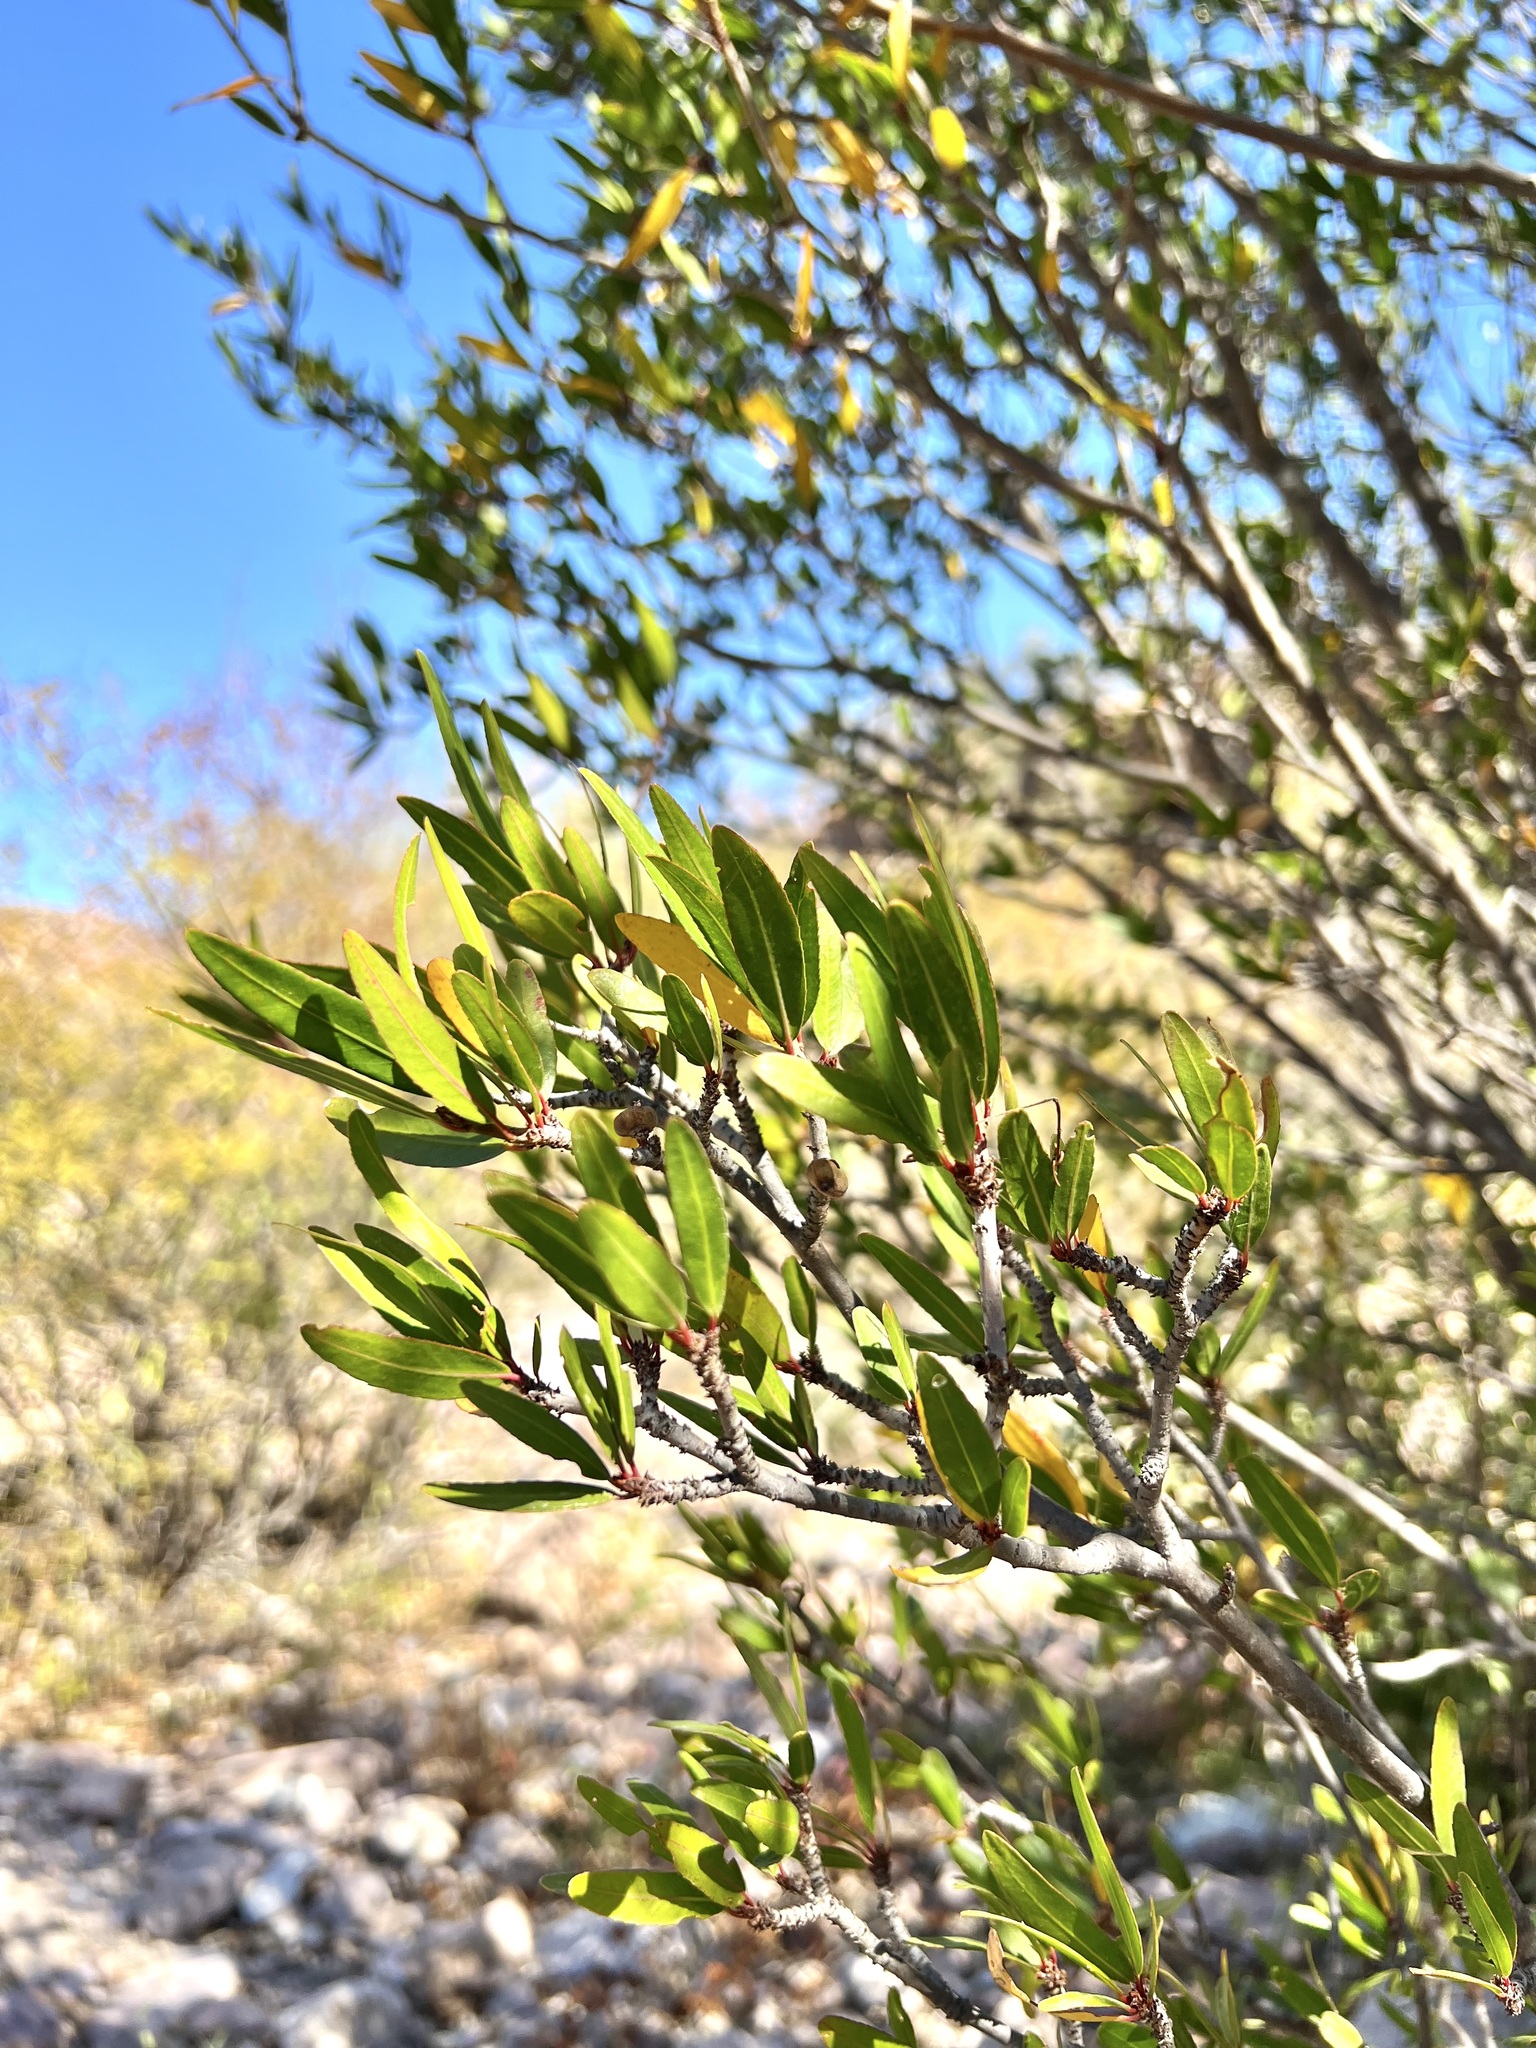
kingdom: Plantae
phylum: Tracheophyta
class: Magnoliopsida
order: Malpighiales
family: Euphorbiaceae
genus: Pleradenophora
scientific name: Pleradenophora bilocularis
